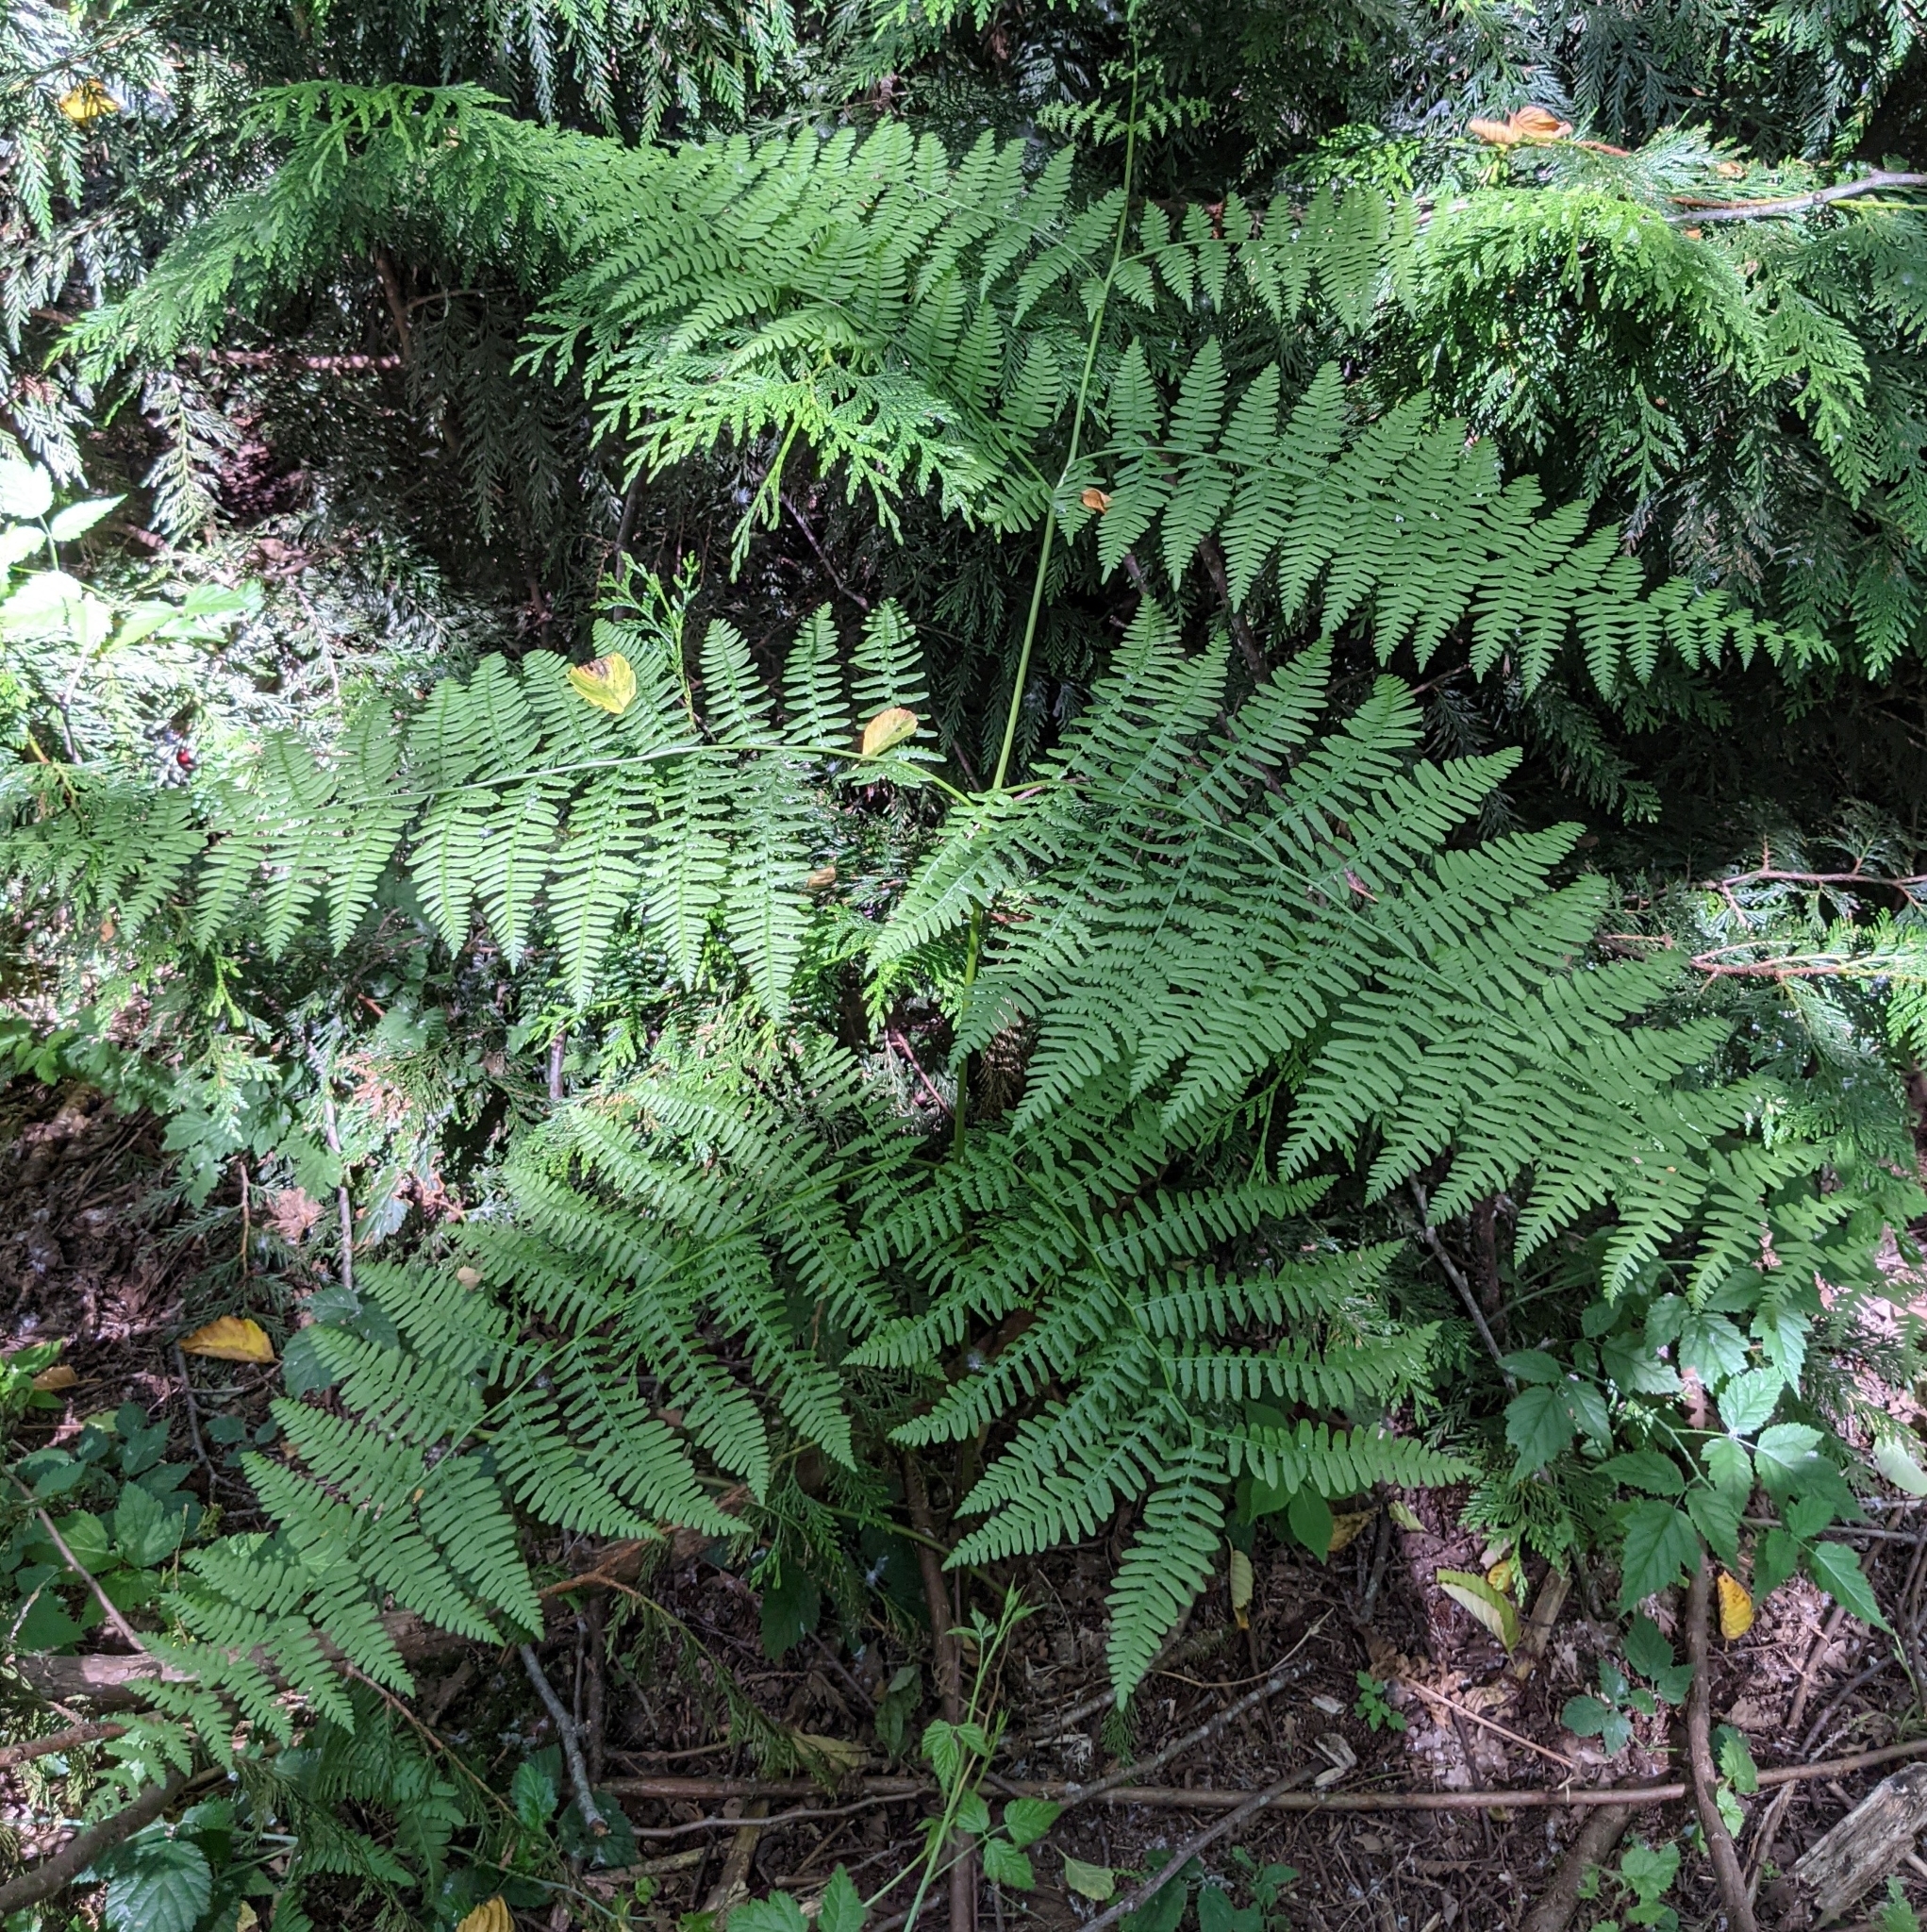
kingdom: Plantae
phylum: Tracheophyta
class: Polypodiopsida
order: Polypodiales
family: Dennstaedtiaceae
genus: Pteridium
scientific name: Pteridium aquilinum
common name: Bracken
